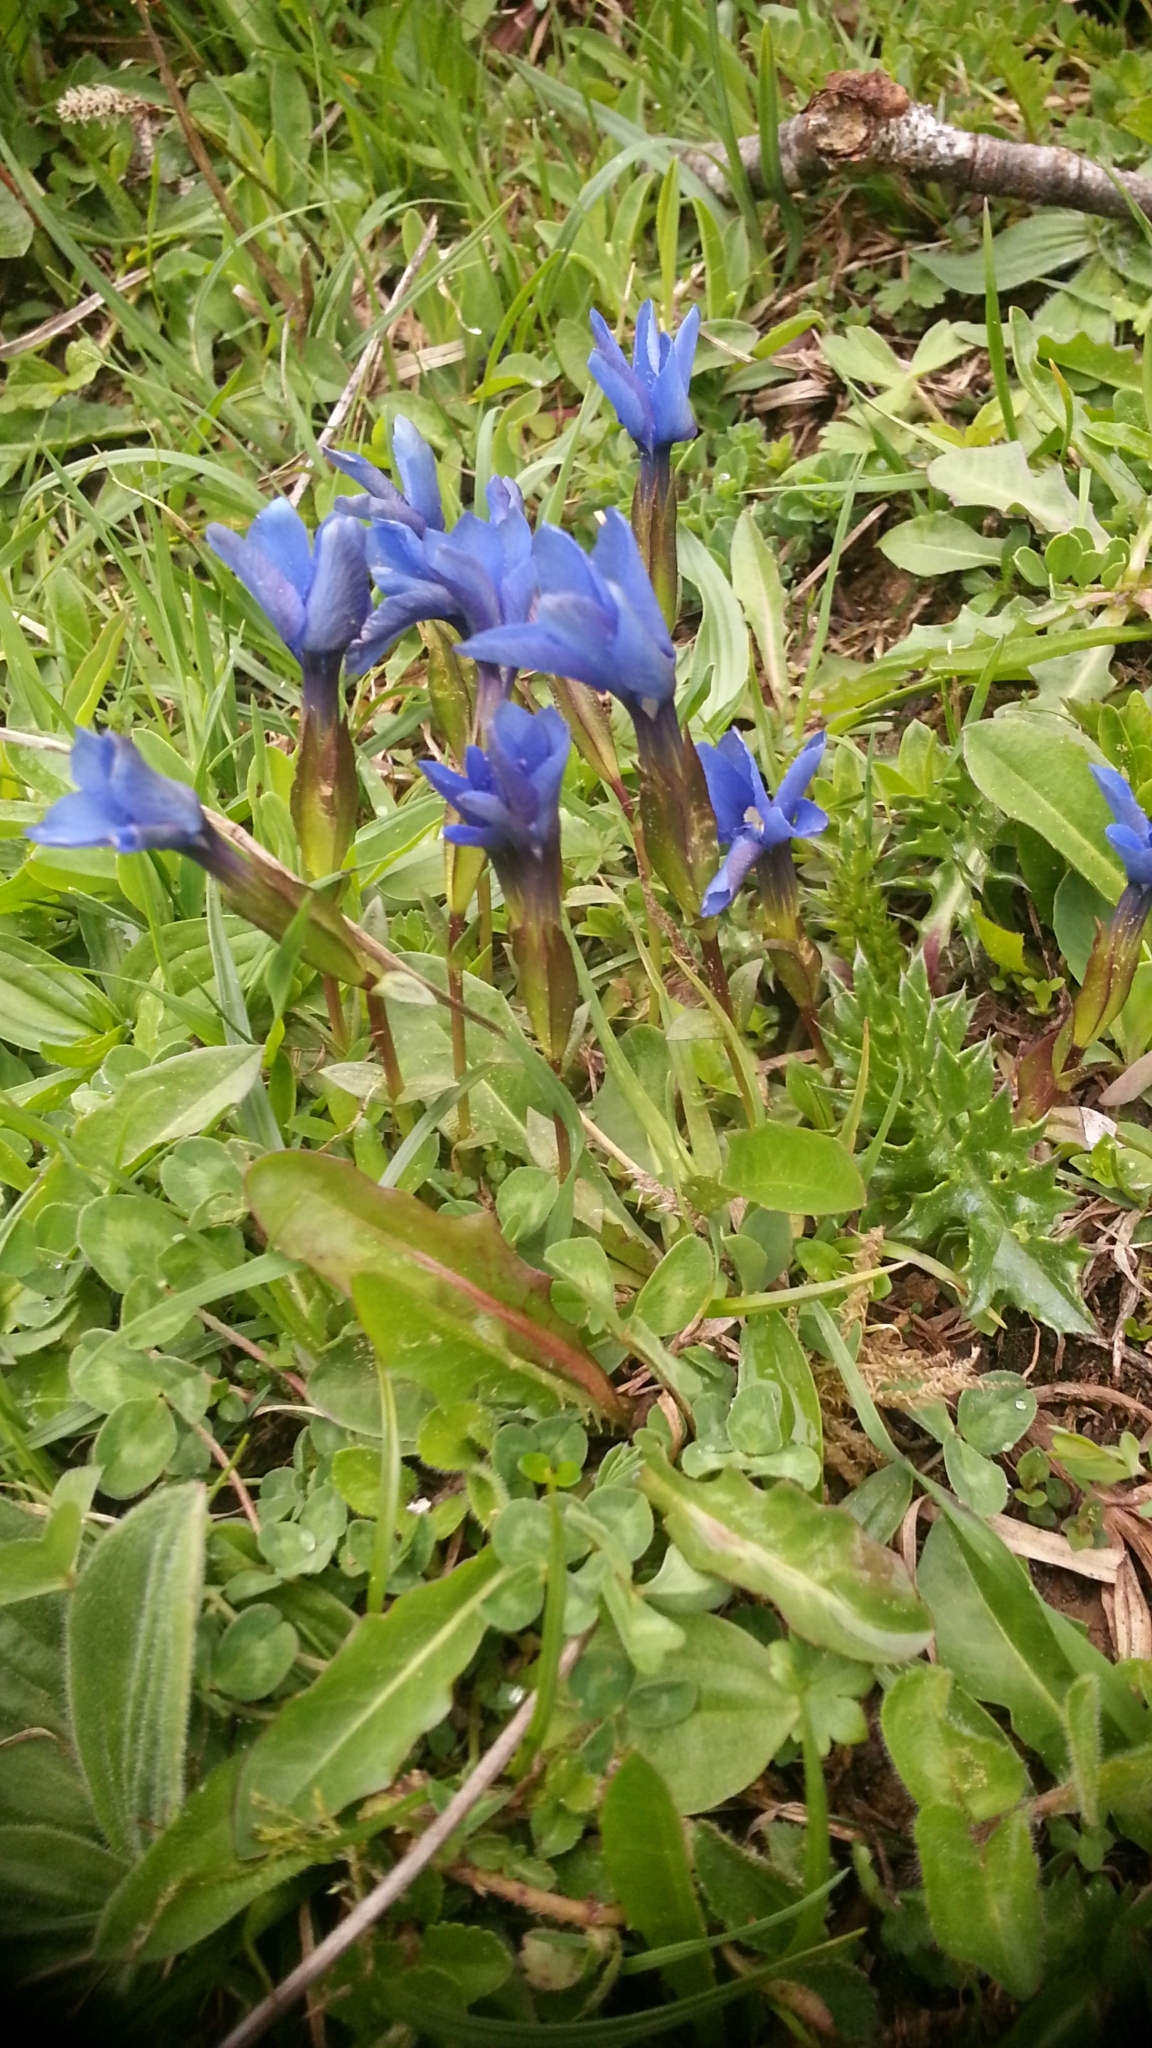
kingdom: Plantae
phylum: Tracheophyta
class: Magnoliopsida
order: Gentianales
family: Gentianaceae
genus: Gentiana
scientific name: Gentiana verna
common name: Spring gentian
